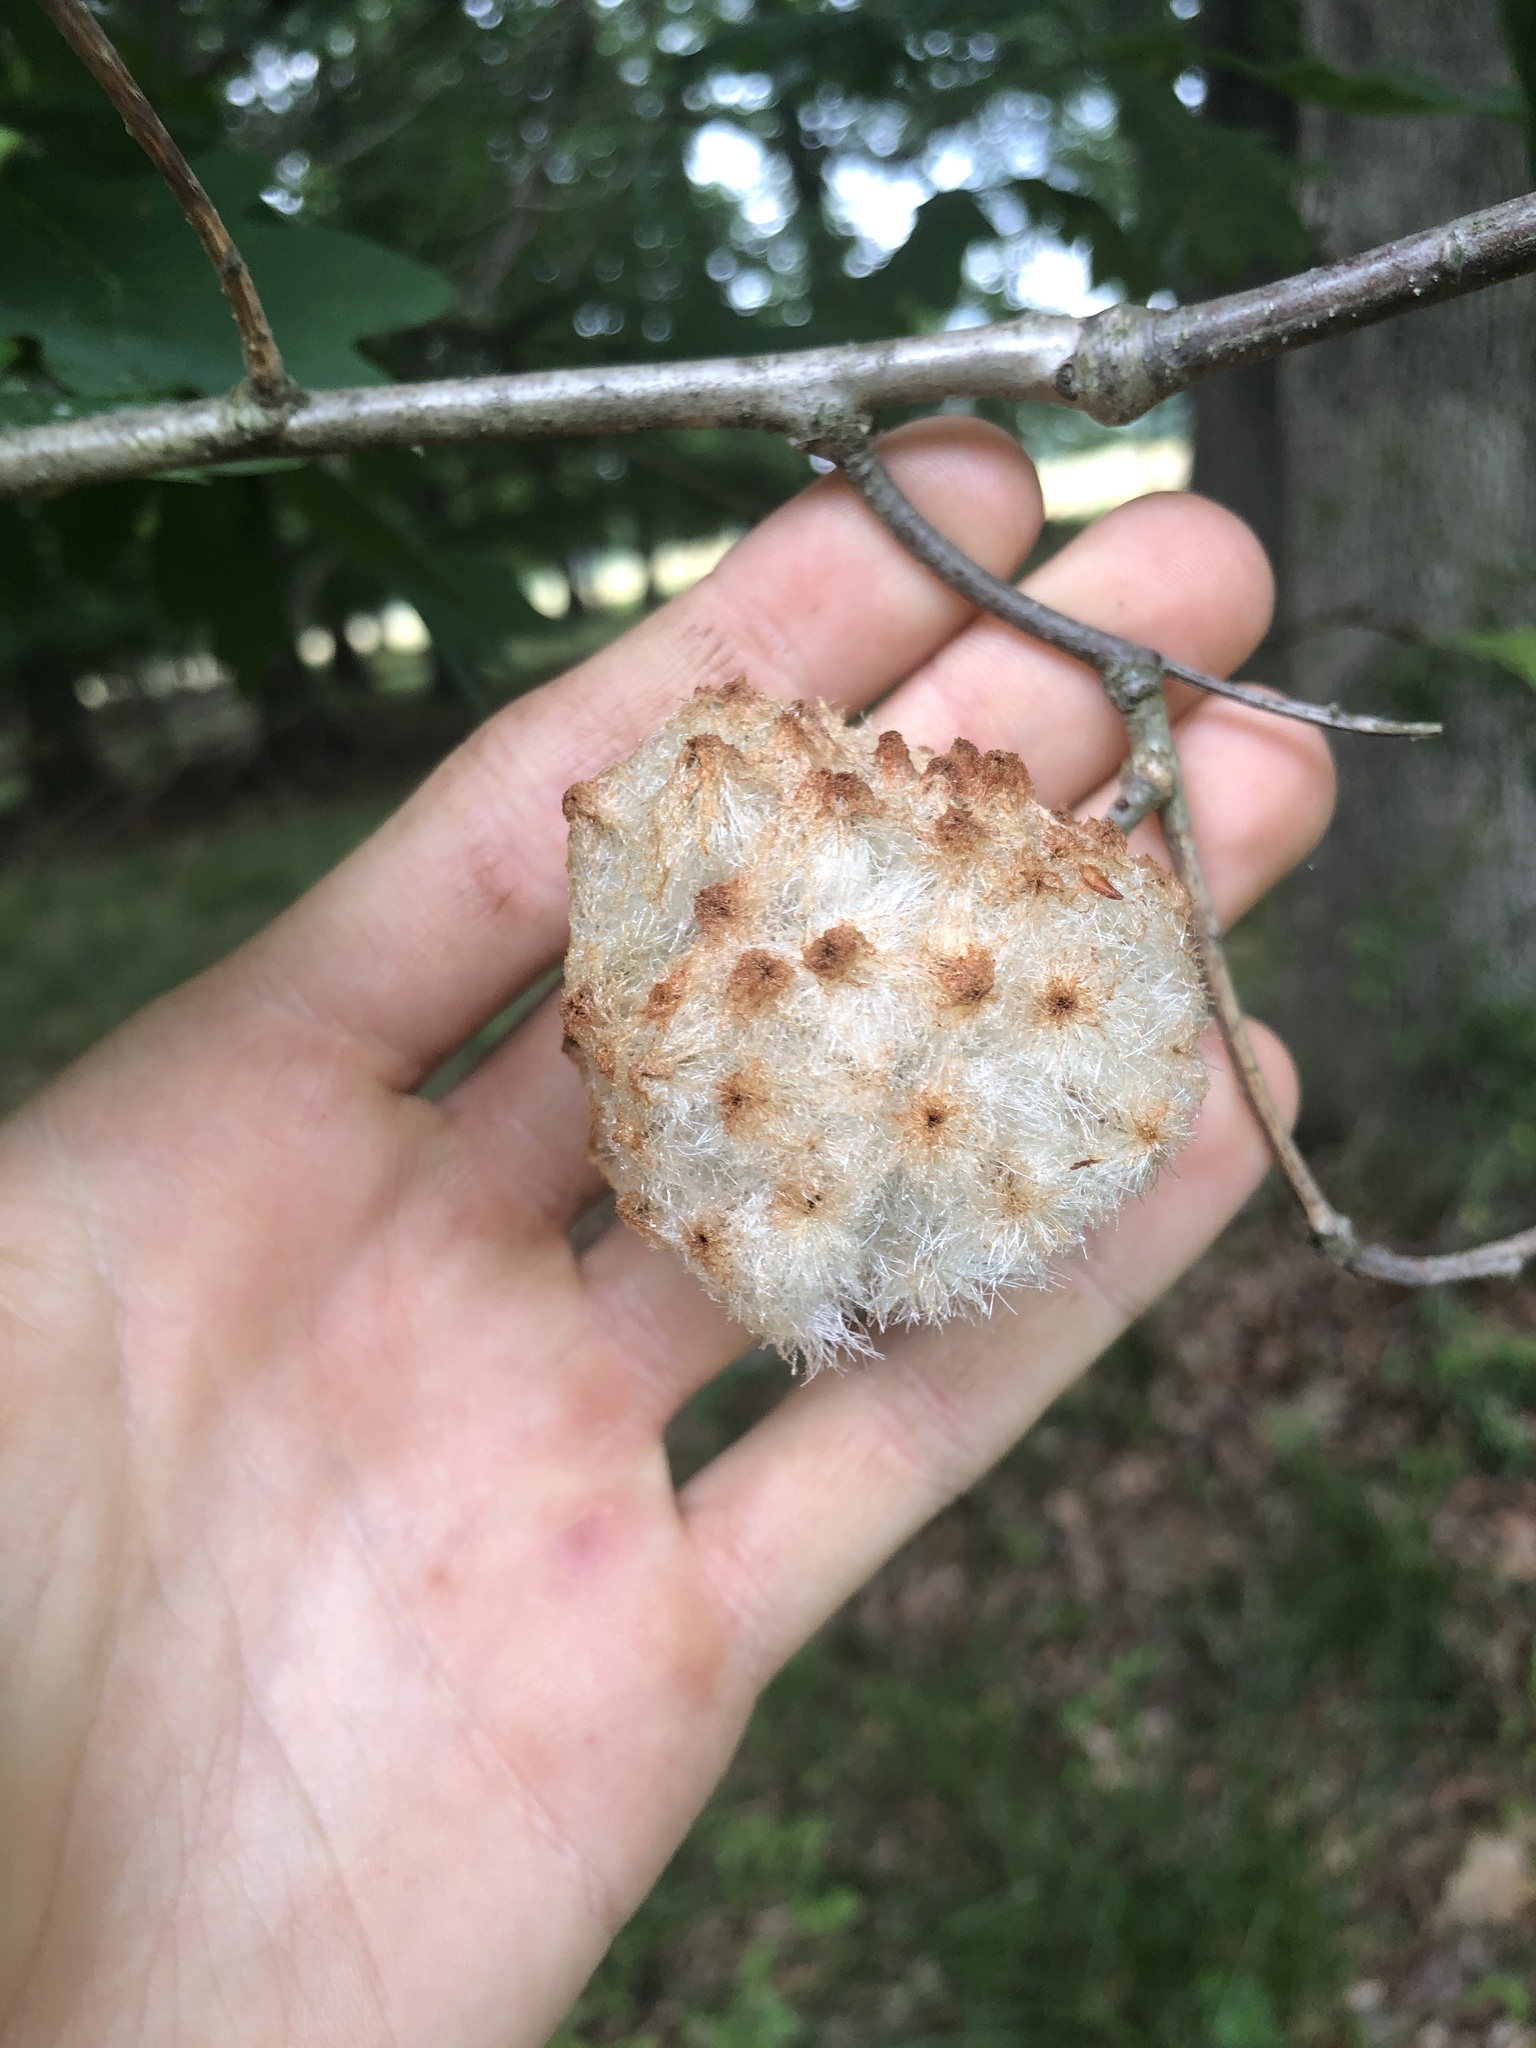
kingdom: Animalia
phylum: Arthropoda
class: Insecta
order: Hymenoptera
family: Cynipidae
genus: Callirhytis
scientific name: Callirhytis
